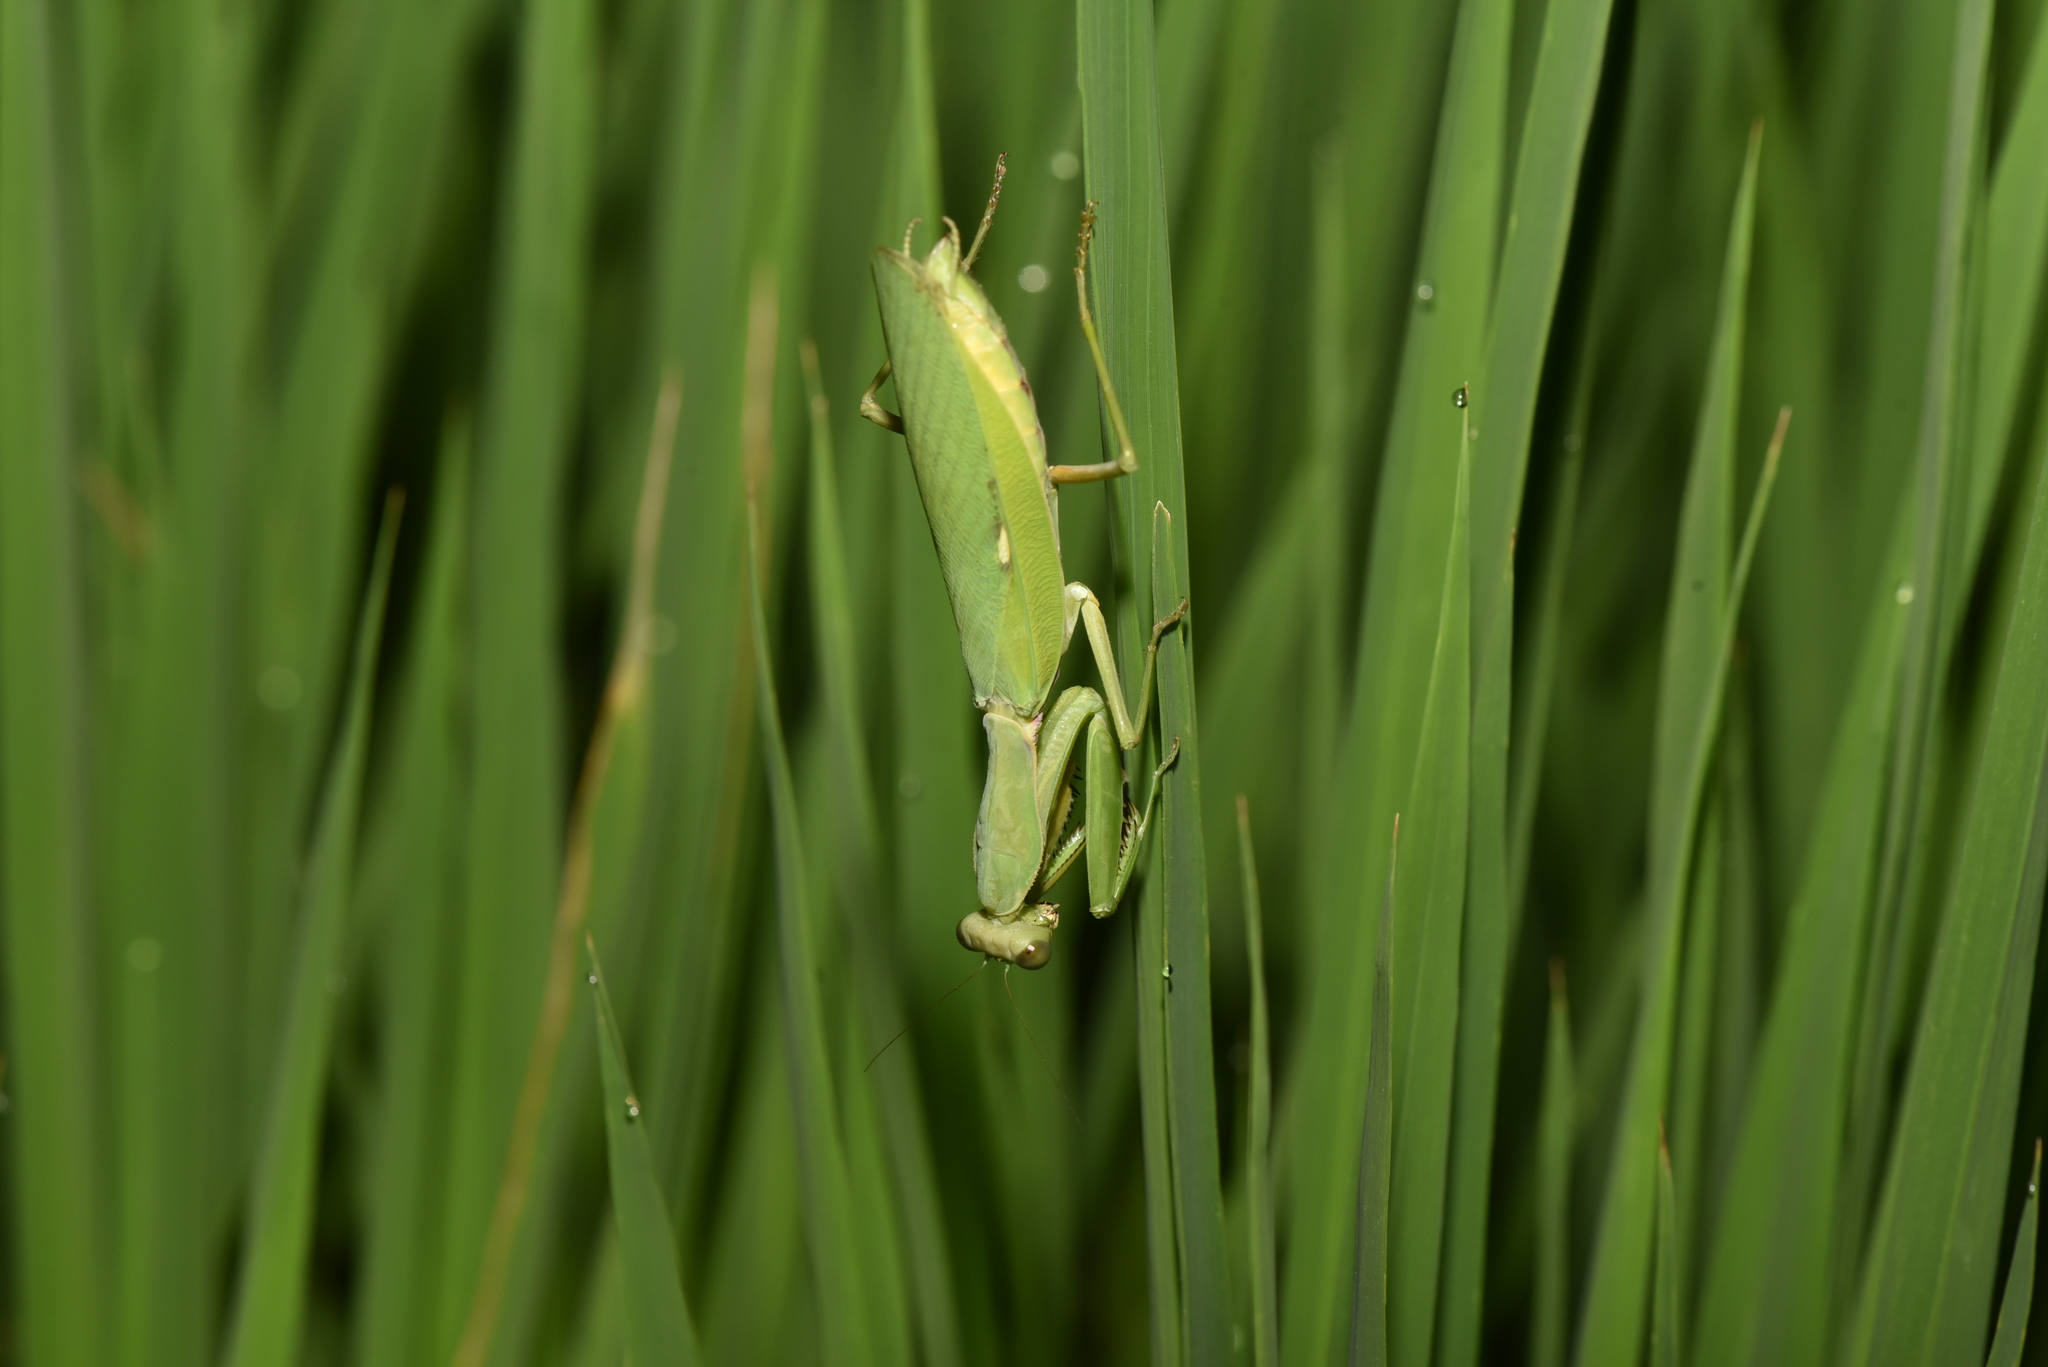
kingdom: Animalia
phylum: Arthropoda
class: Insecta
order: Mantodea
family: Mantidae
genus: Hierodula
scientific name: Hierodula patellifera
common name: Asian mantis
